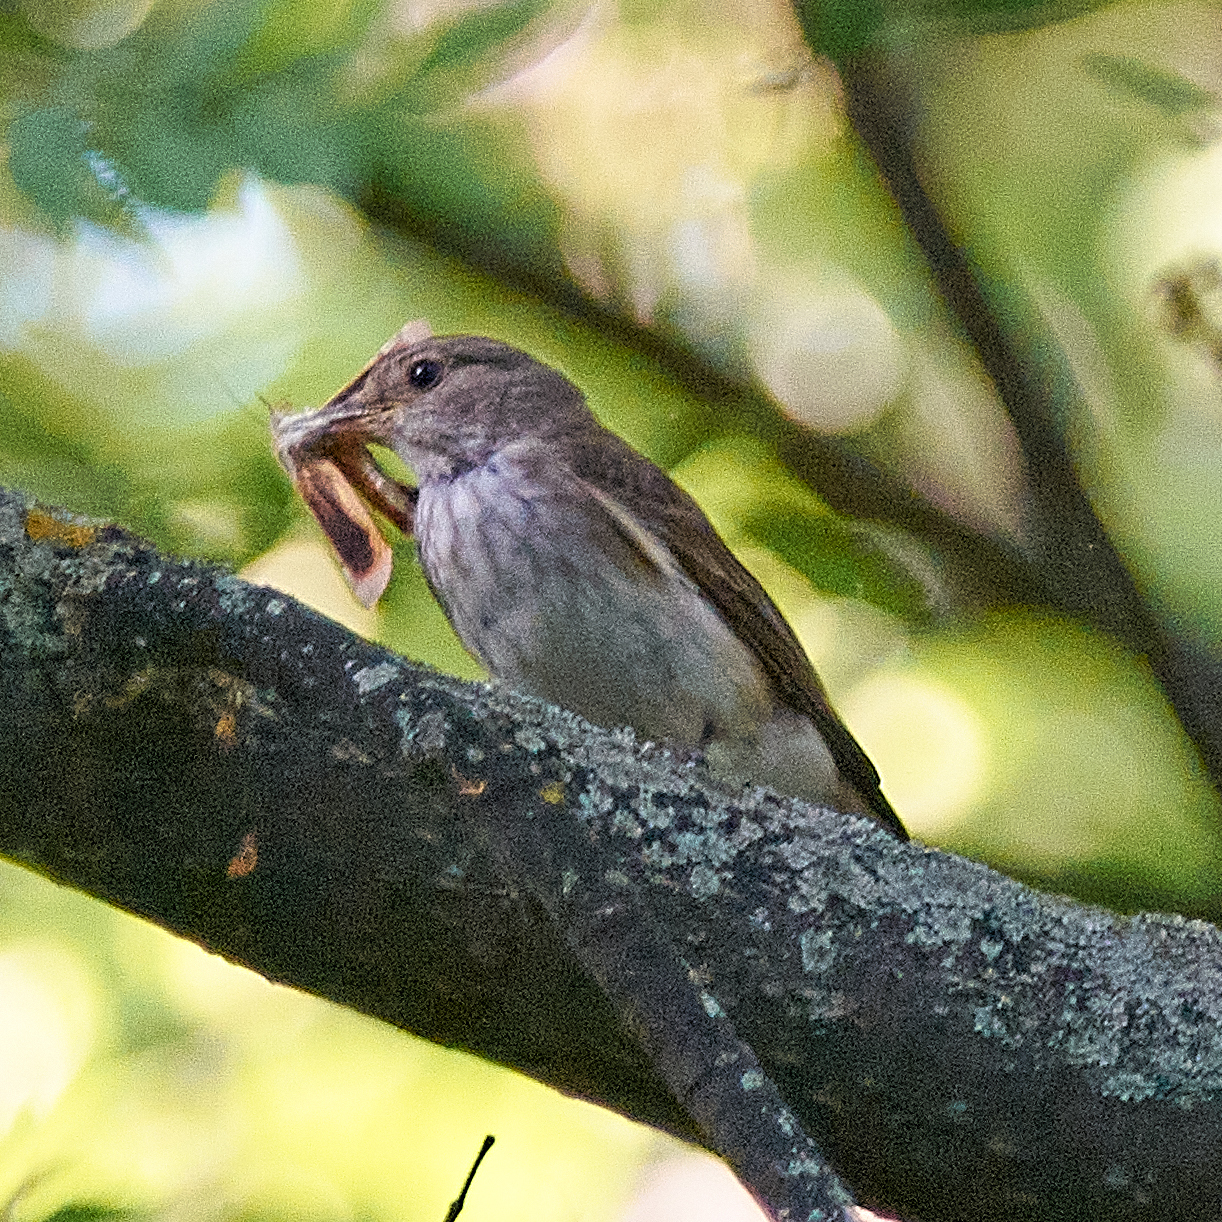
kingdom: Animalia
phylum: Chordata
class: Aves
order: Passeriformes
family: Muscicapidae
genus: Muscicapa
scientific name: Muscicapa striata
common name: Spotted flycatcher
